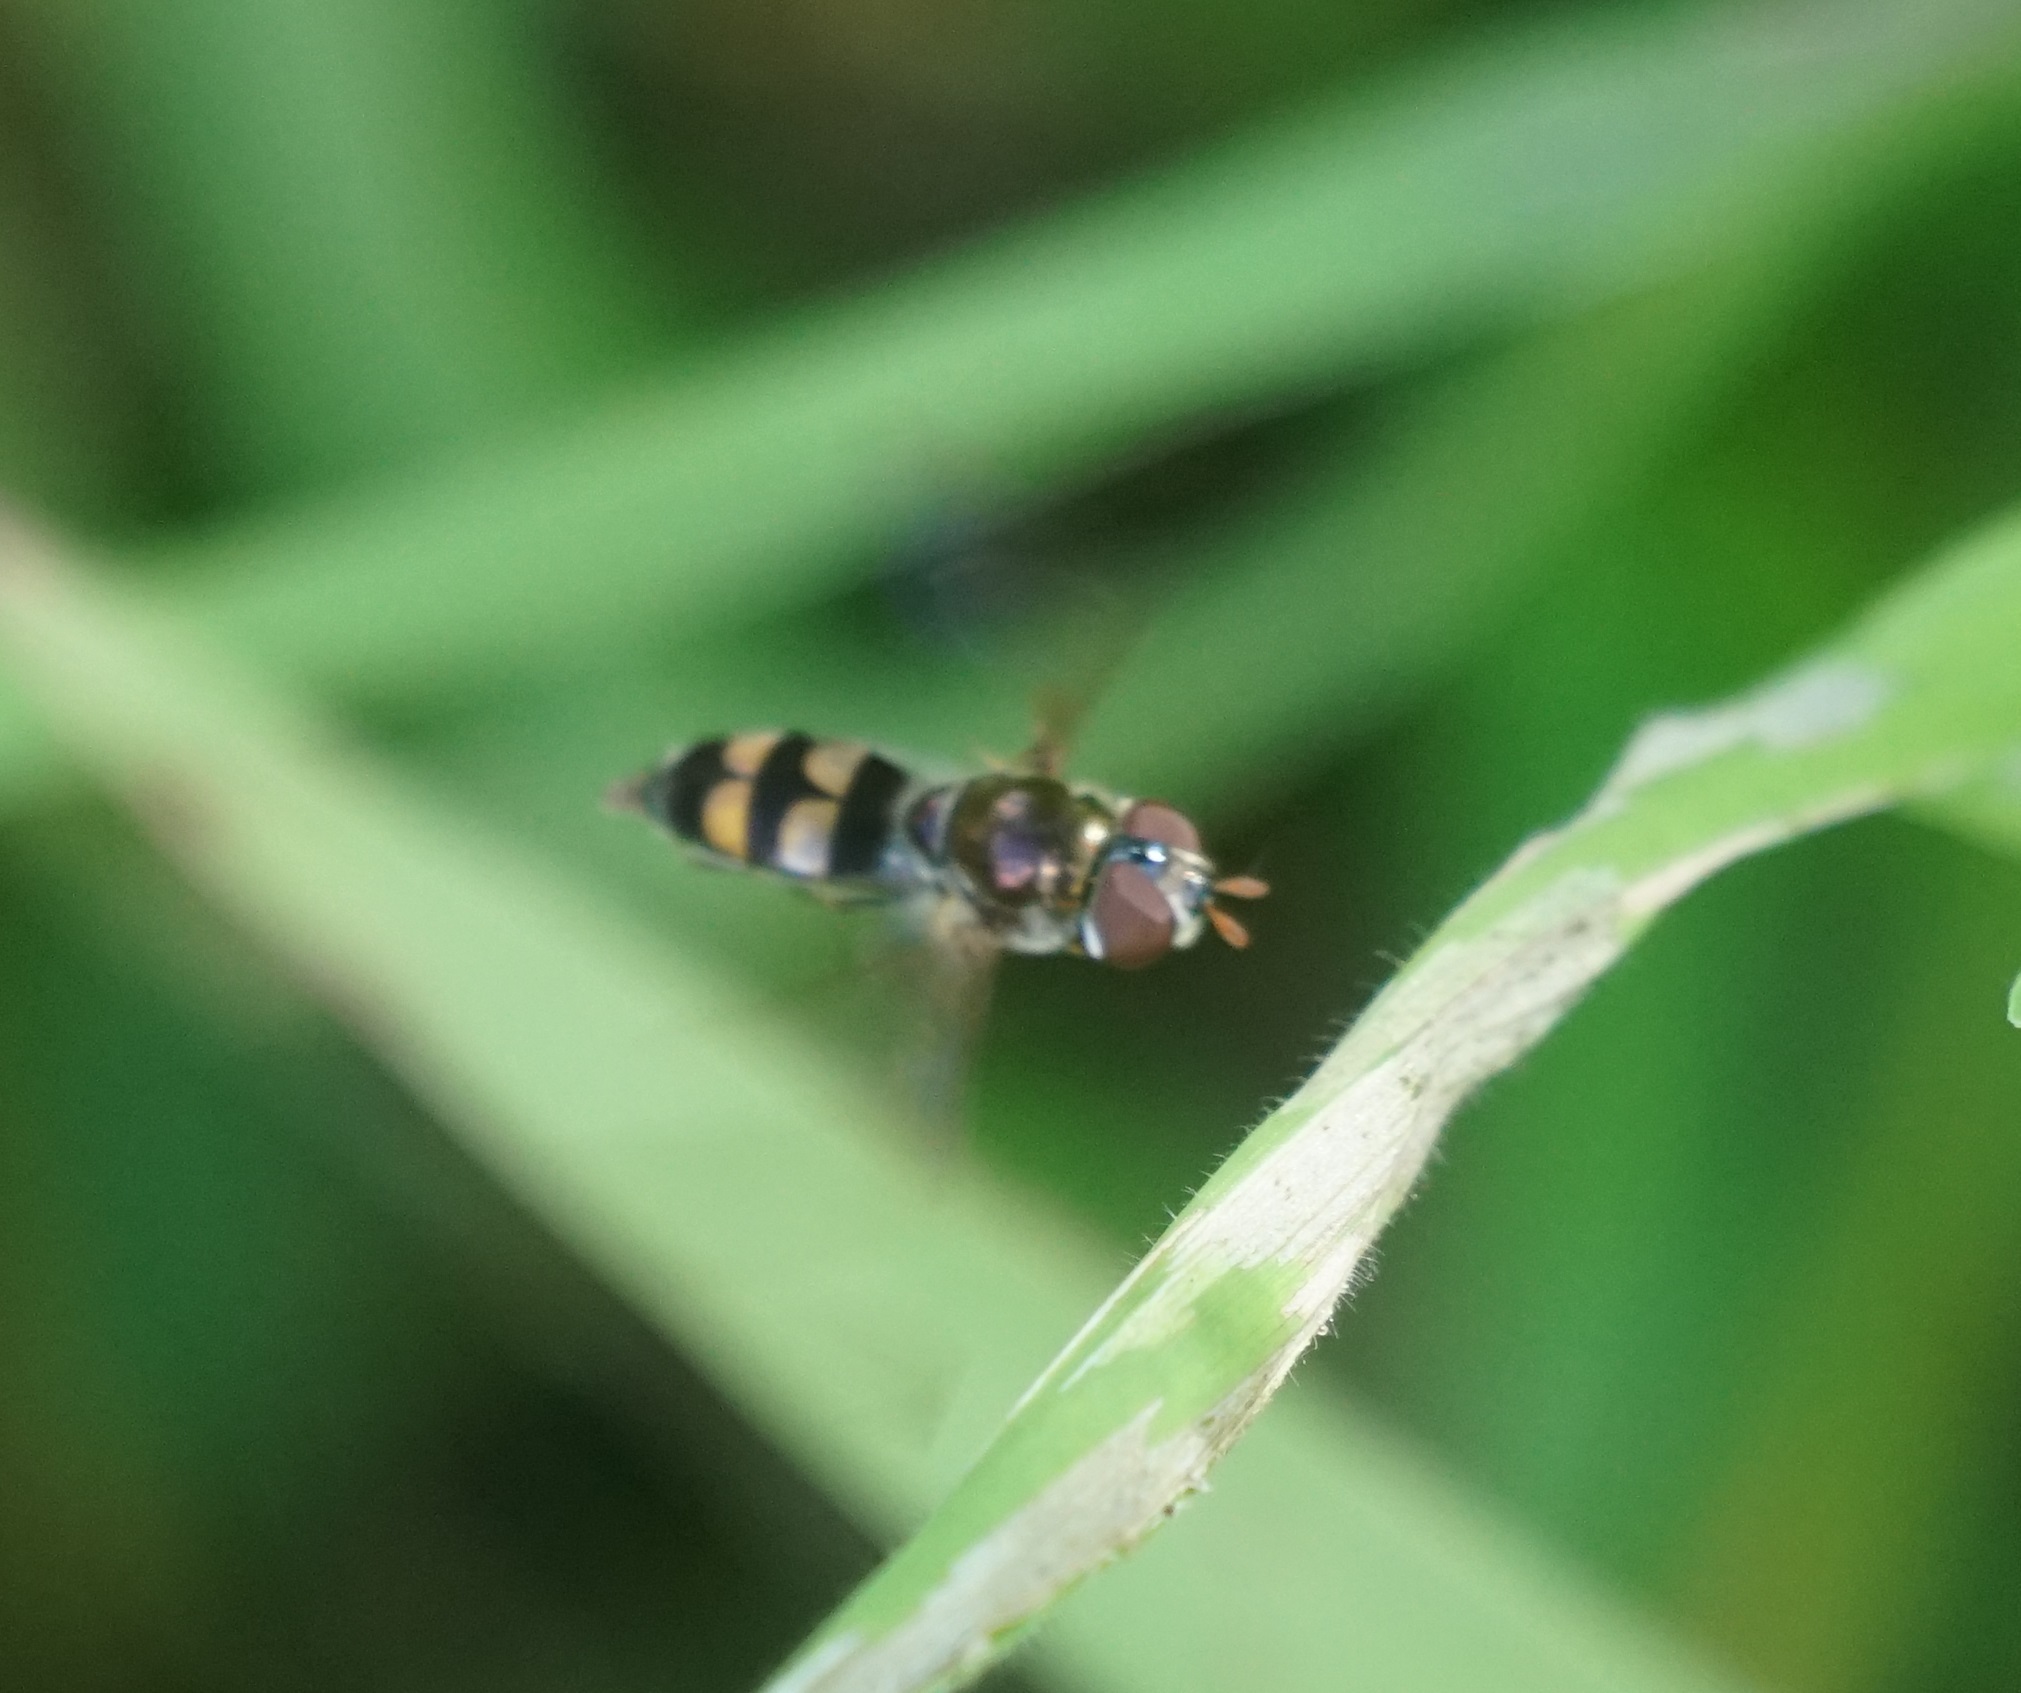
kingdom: Animalia
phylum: Arthropoda
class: Insecta
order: Diptera
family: Syrphidae
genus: Xanthandrus
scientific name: Xanthandrus agrolas
